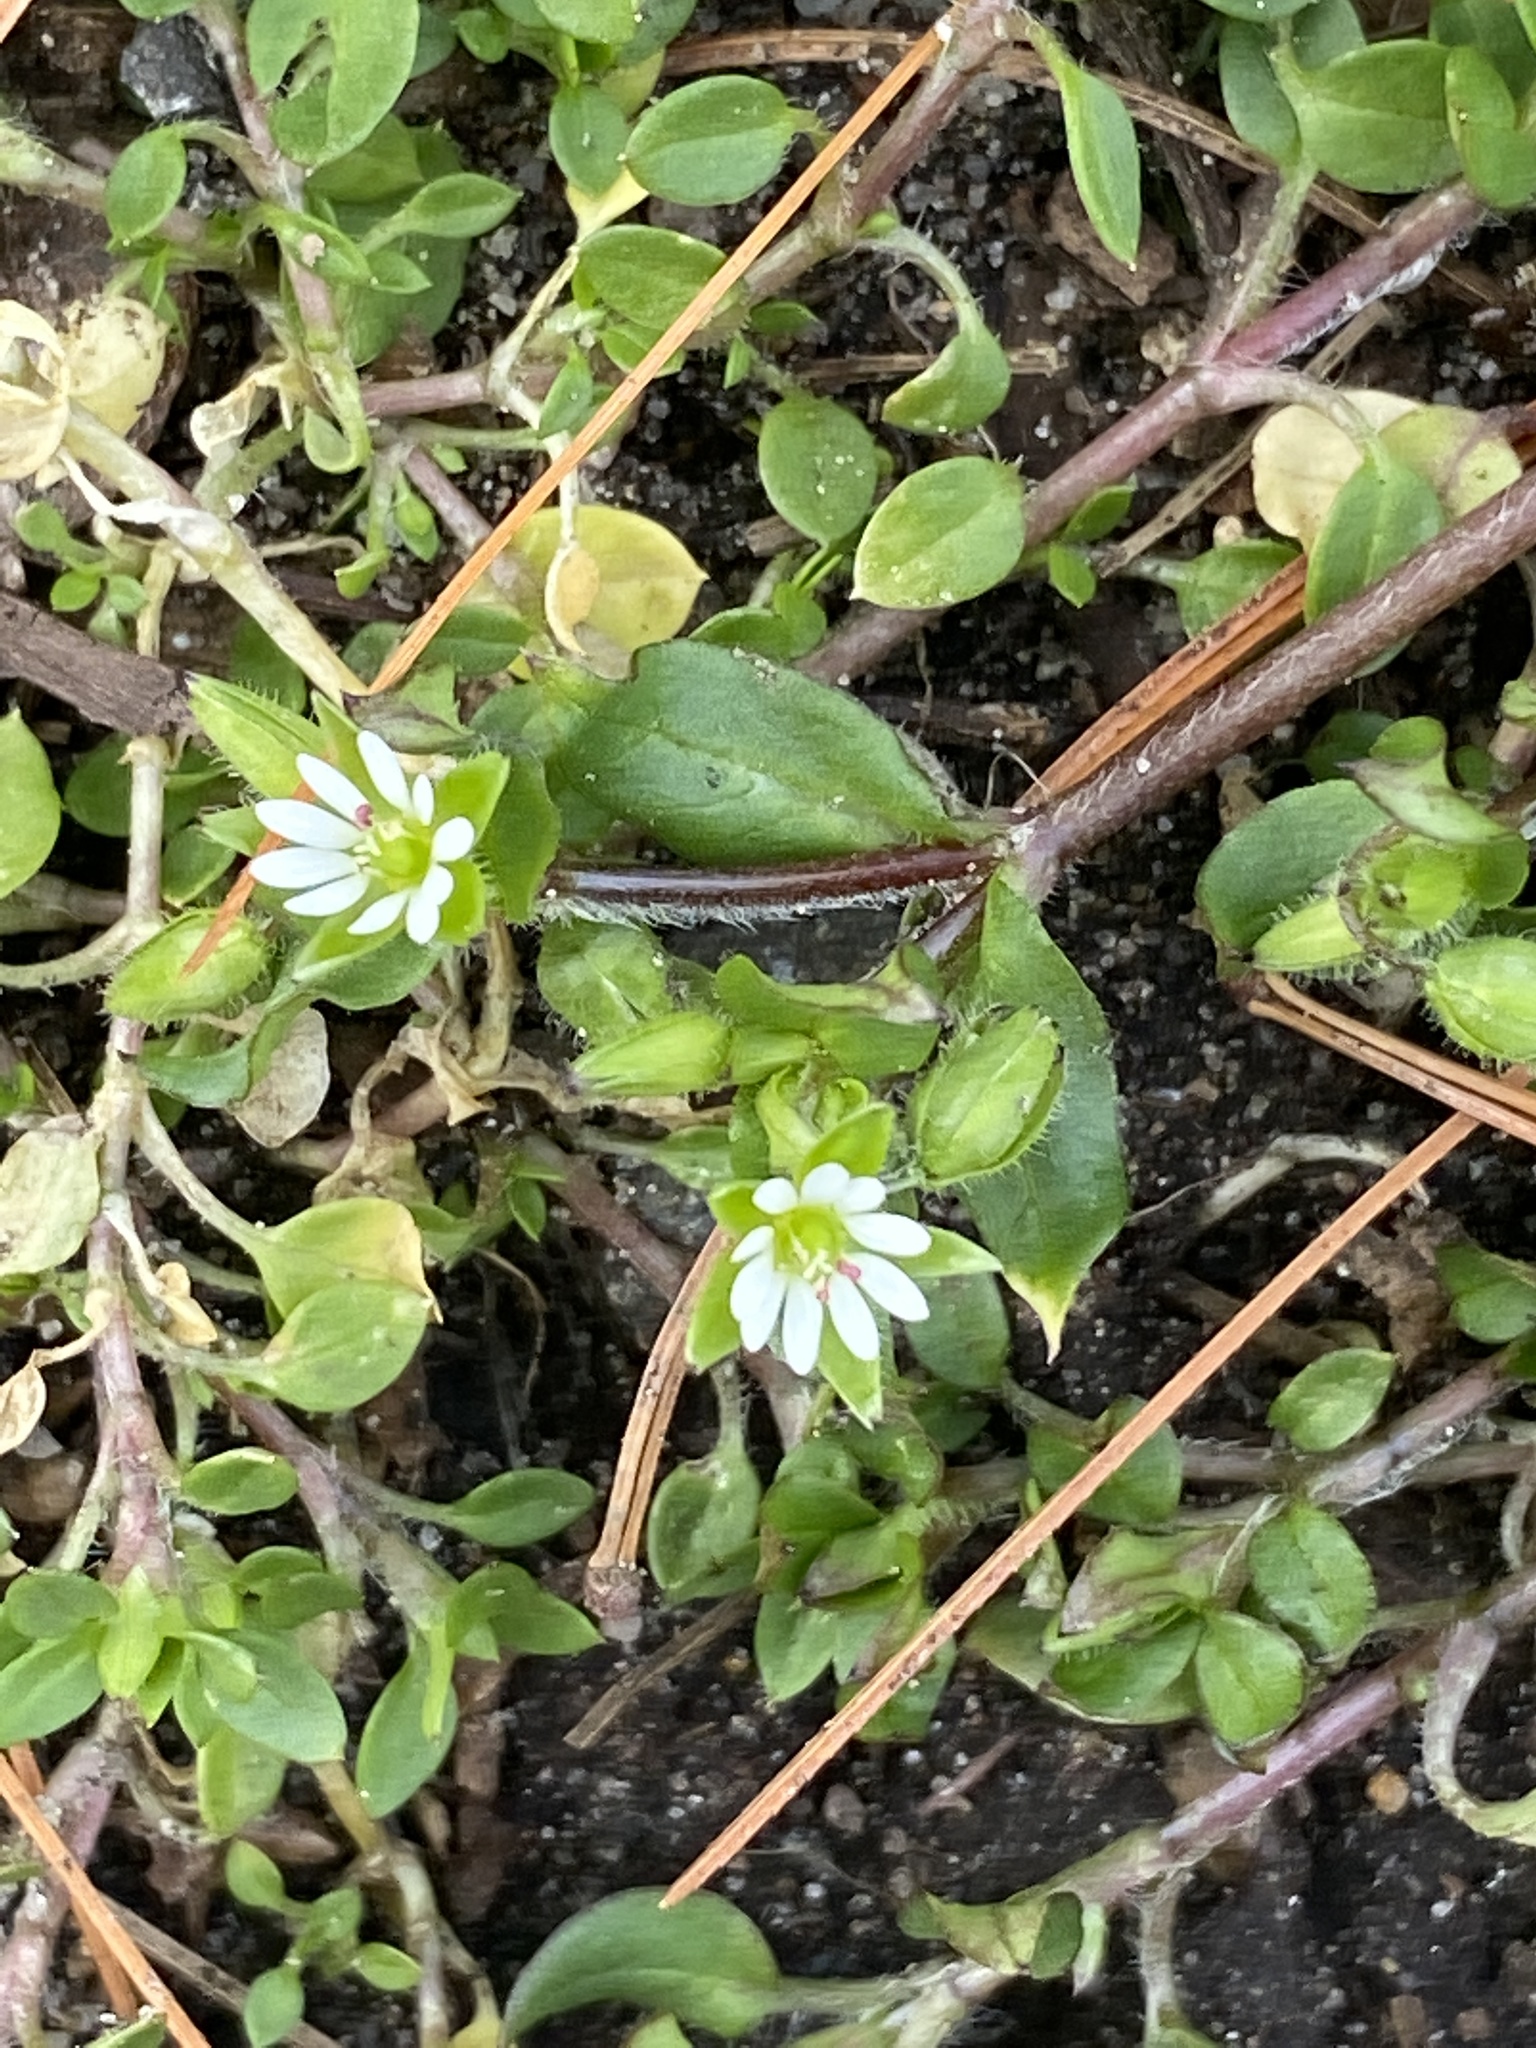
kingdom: Plantae
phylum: Tracheophyta
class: Magnoliopsida
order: Caryophyllales
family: Caryophyllaceae
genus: Stellaria
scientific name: Stellaria media
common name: Common chickweed
